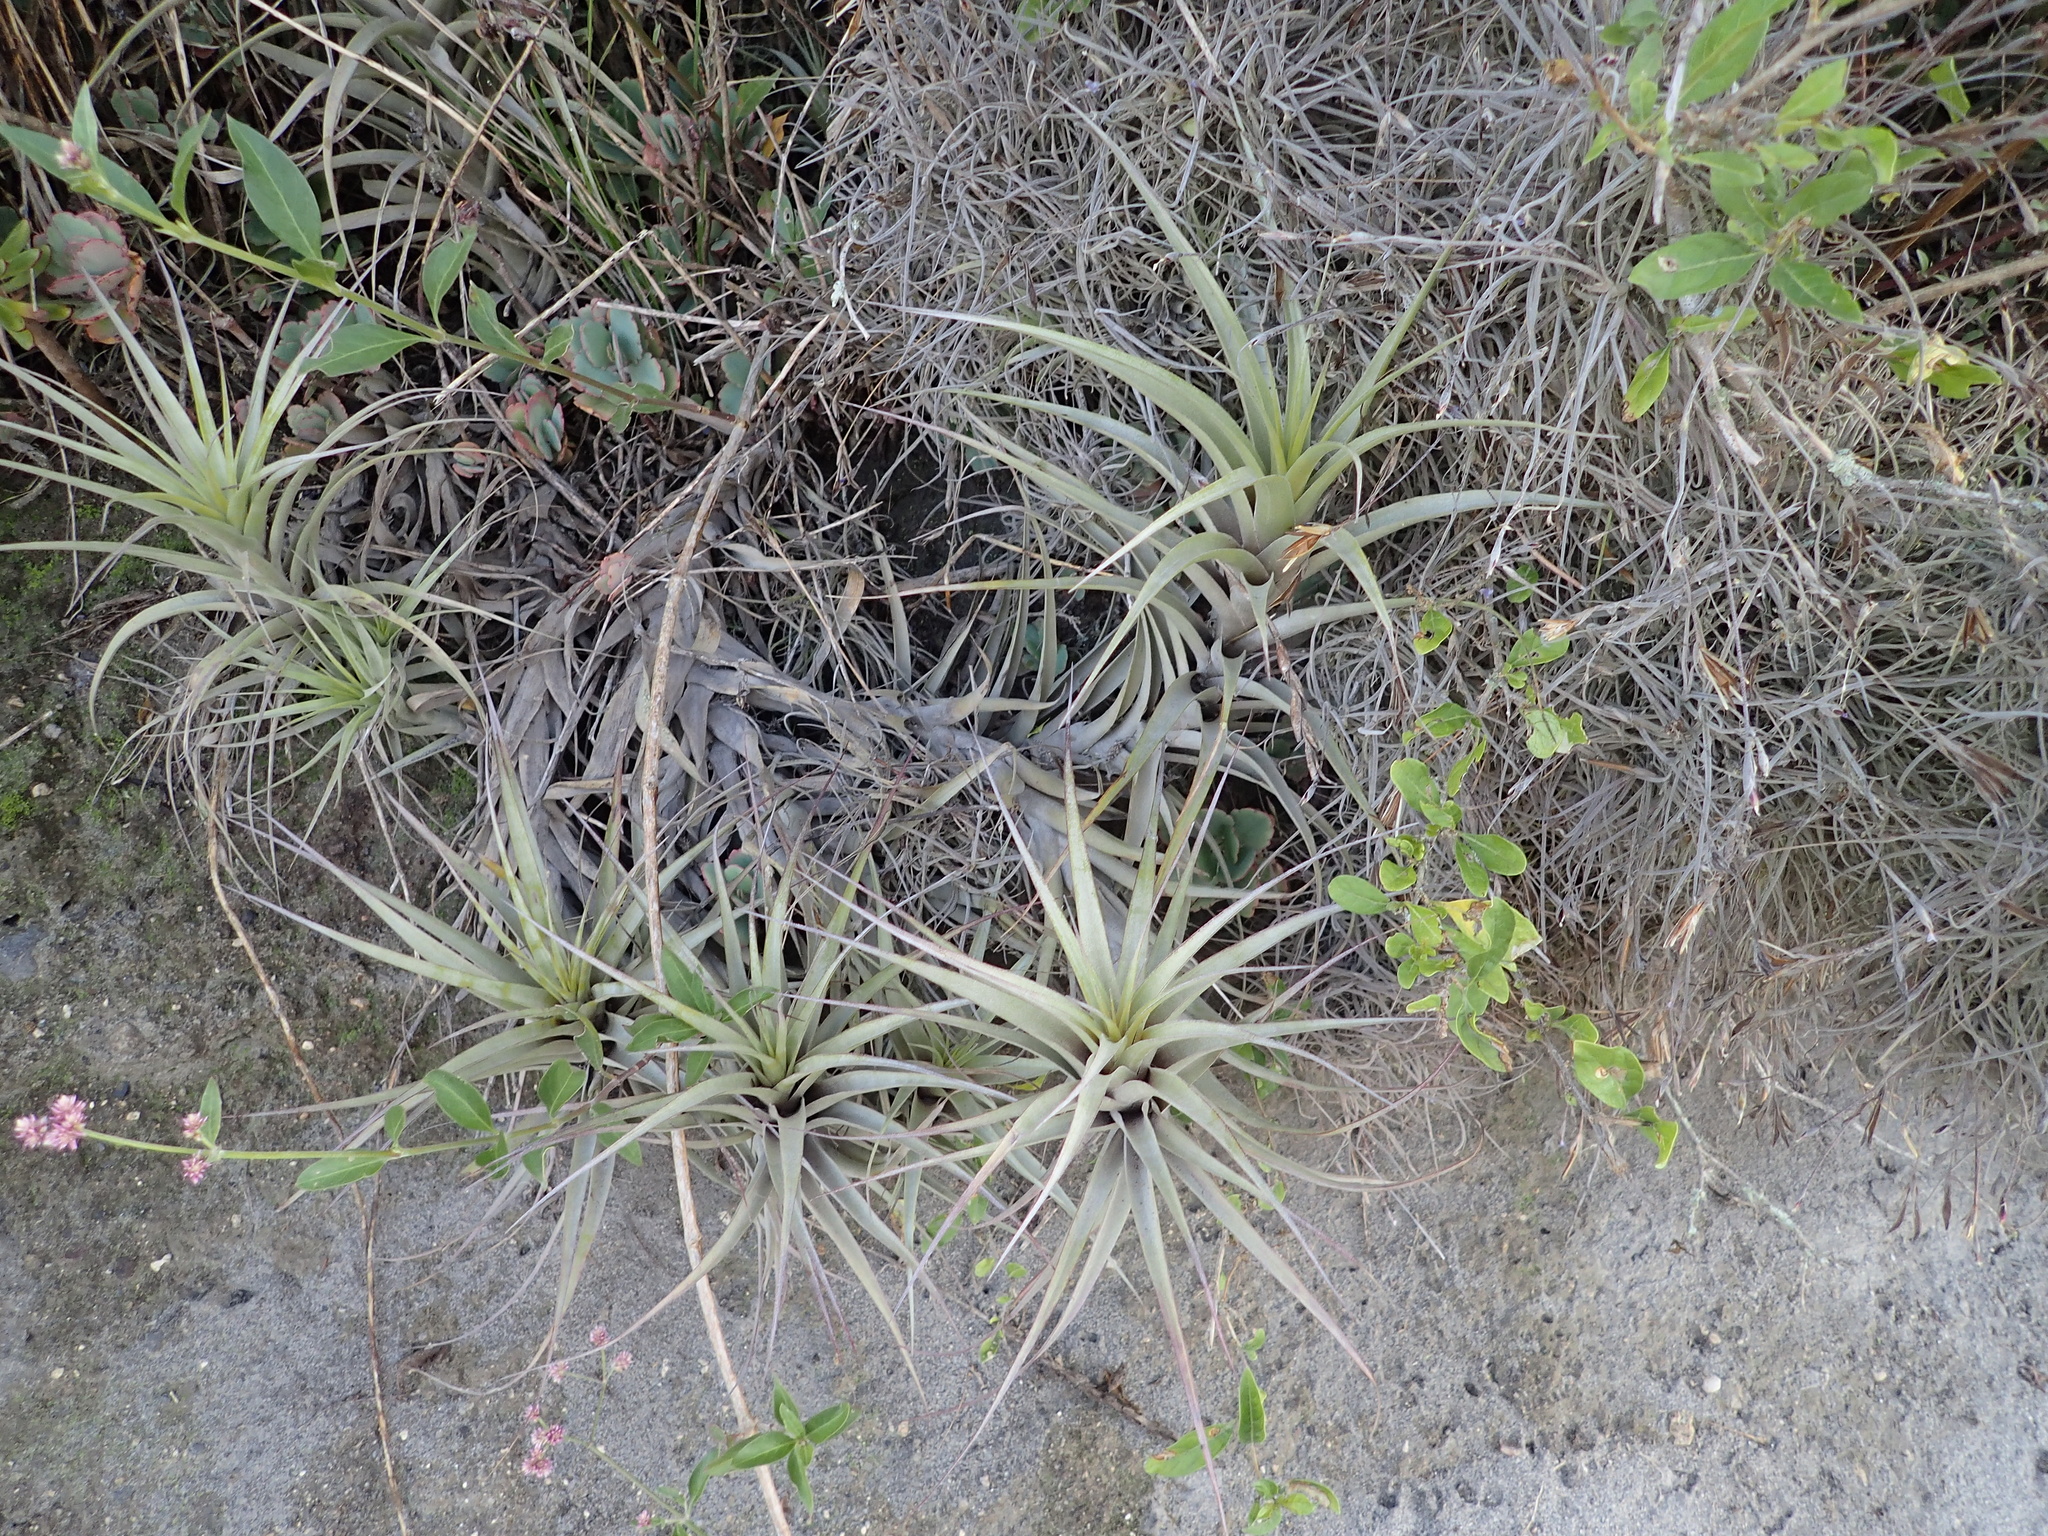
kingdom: Plantae
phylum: Tracheophyta
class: Liliopsida
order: Poales
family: Bromeliaceae
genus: Tillandsia
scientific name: Tillandsia incarnata
